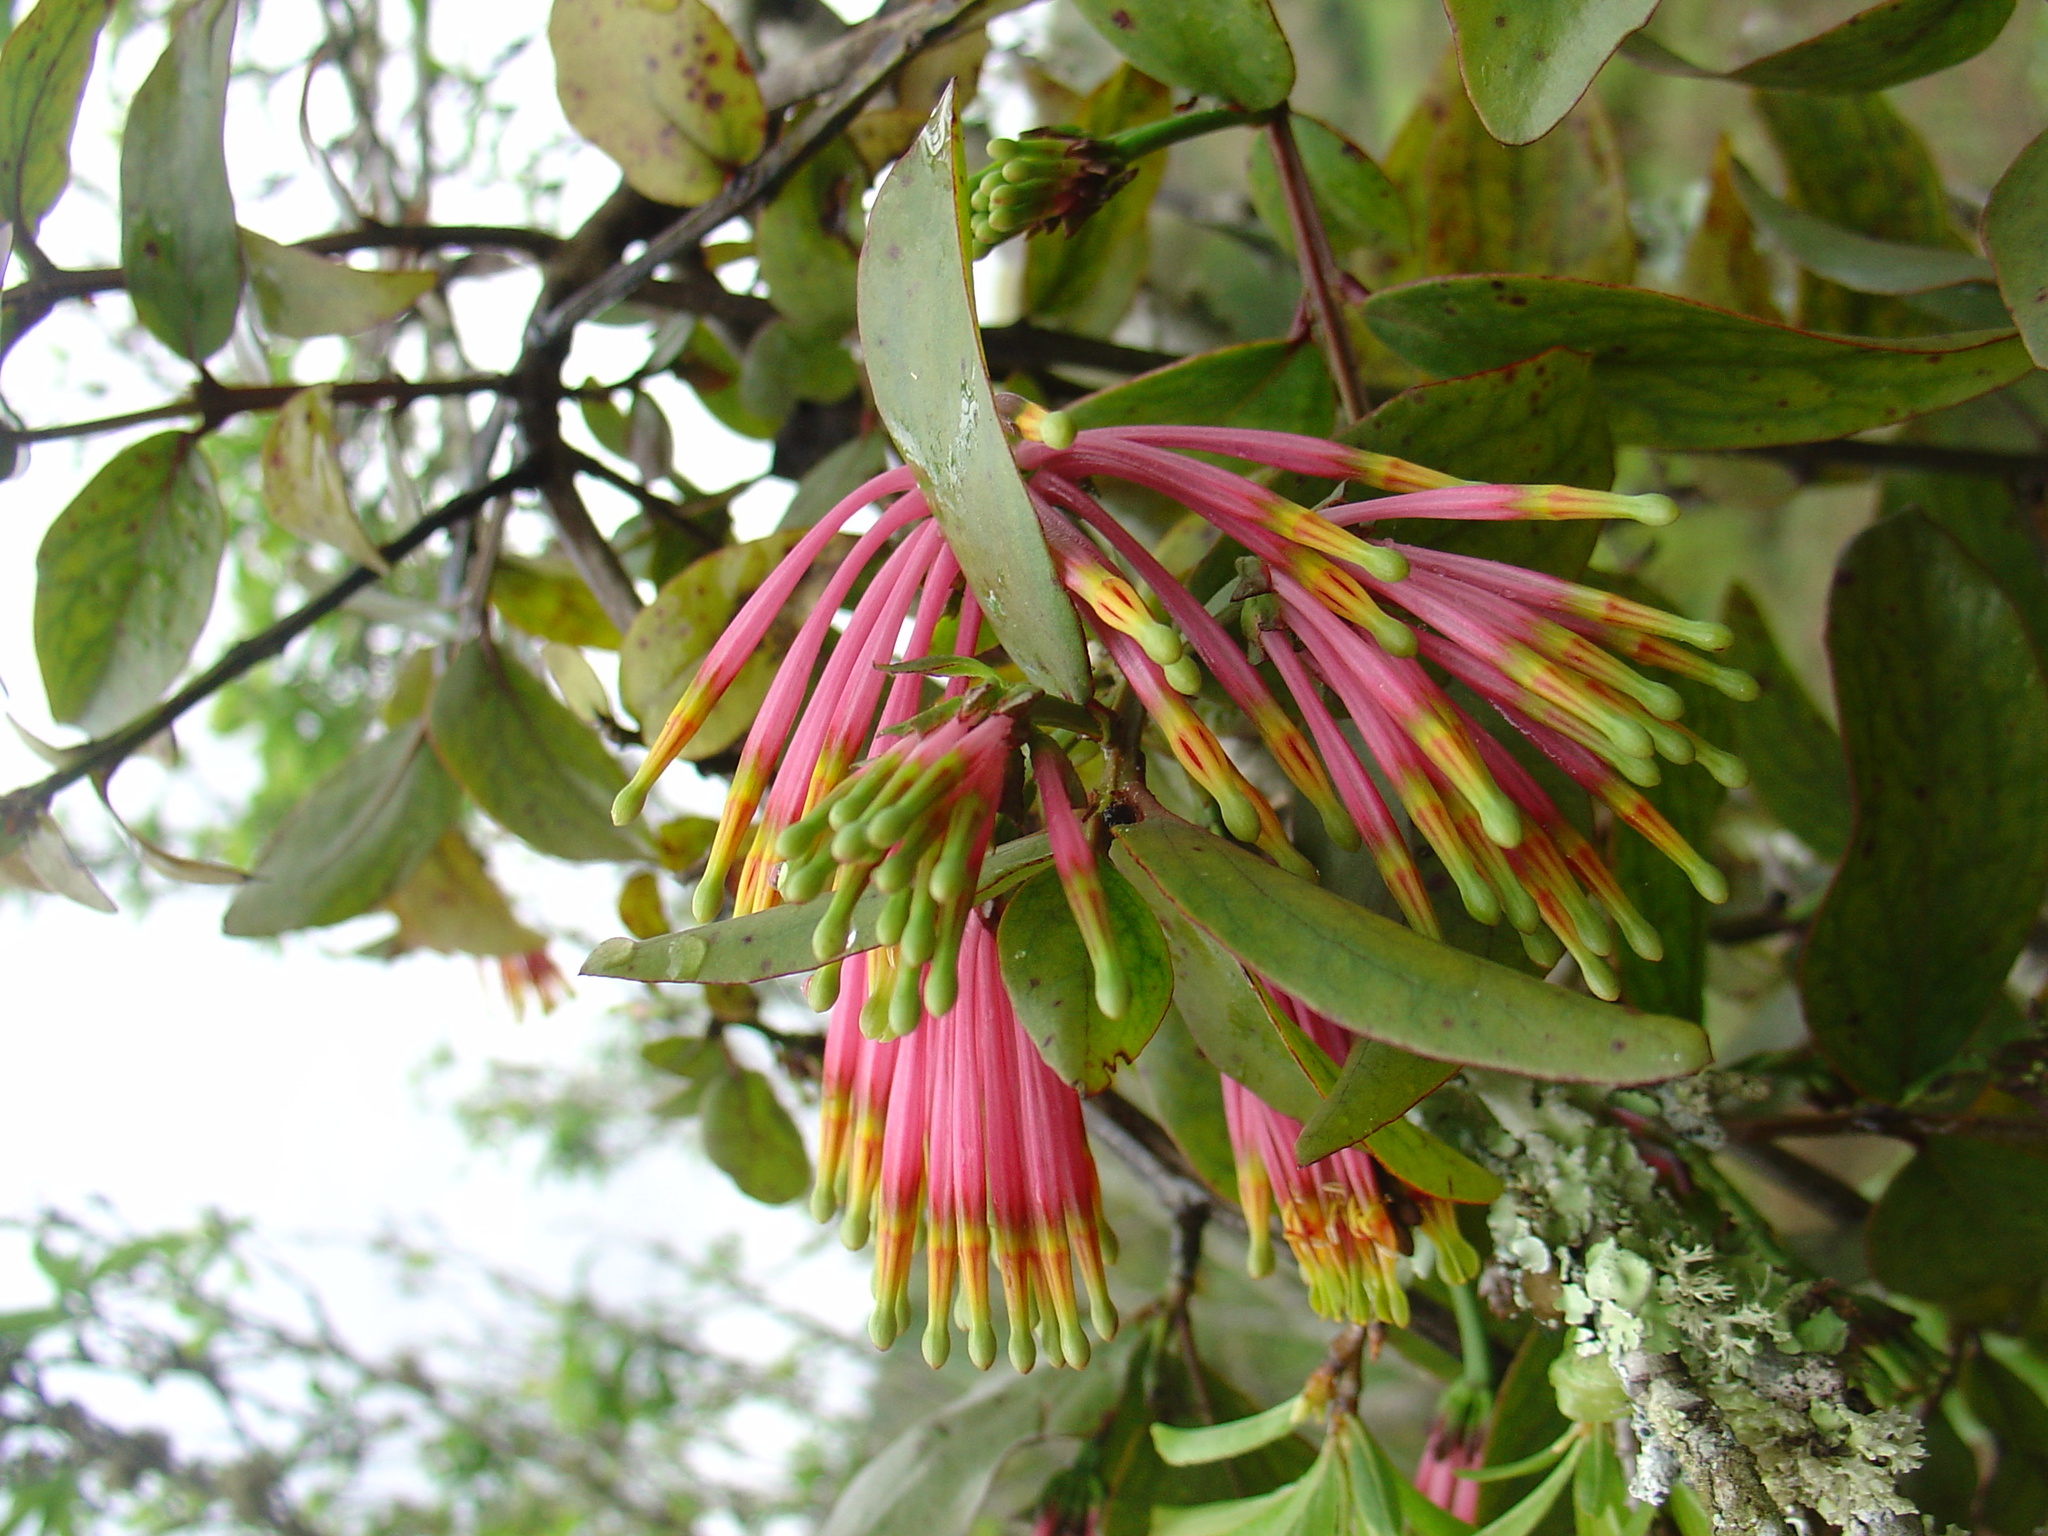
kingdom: Plantae
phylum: Tracheophyta
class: Magnoliopsida
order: Santalales
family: Loranthaceae
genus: Agelanthus
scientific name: Agelanthus subulatus
